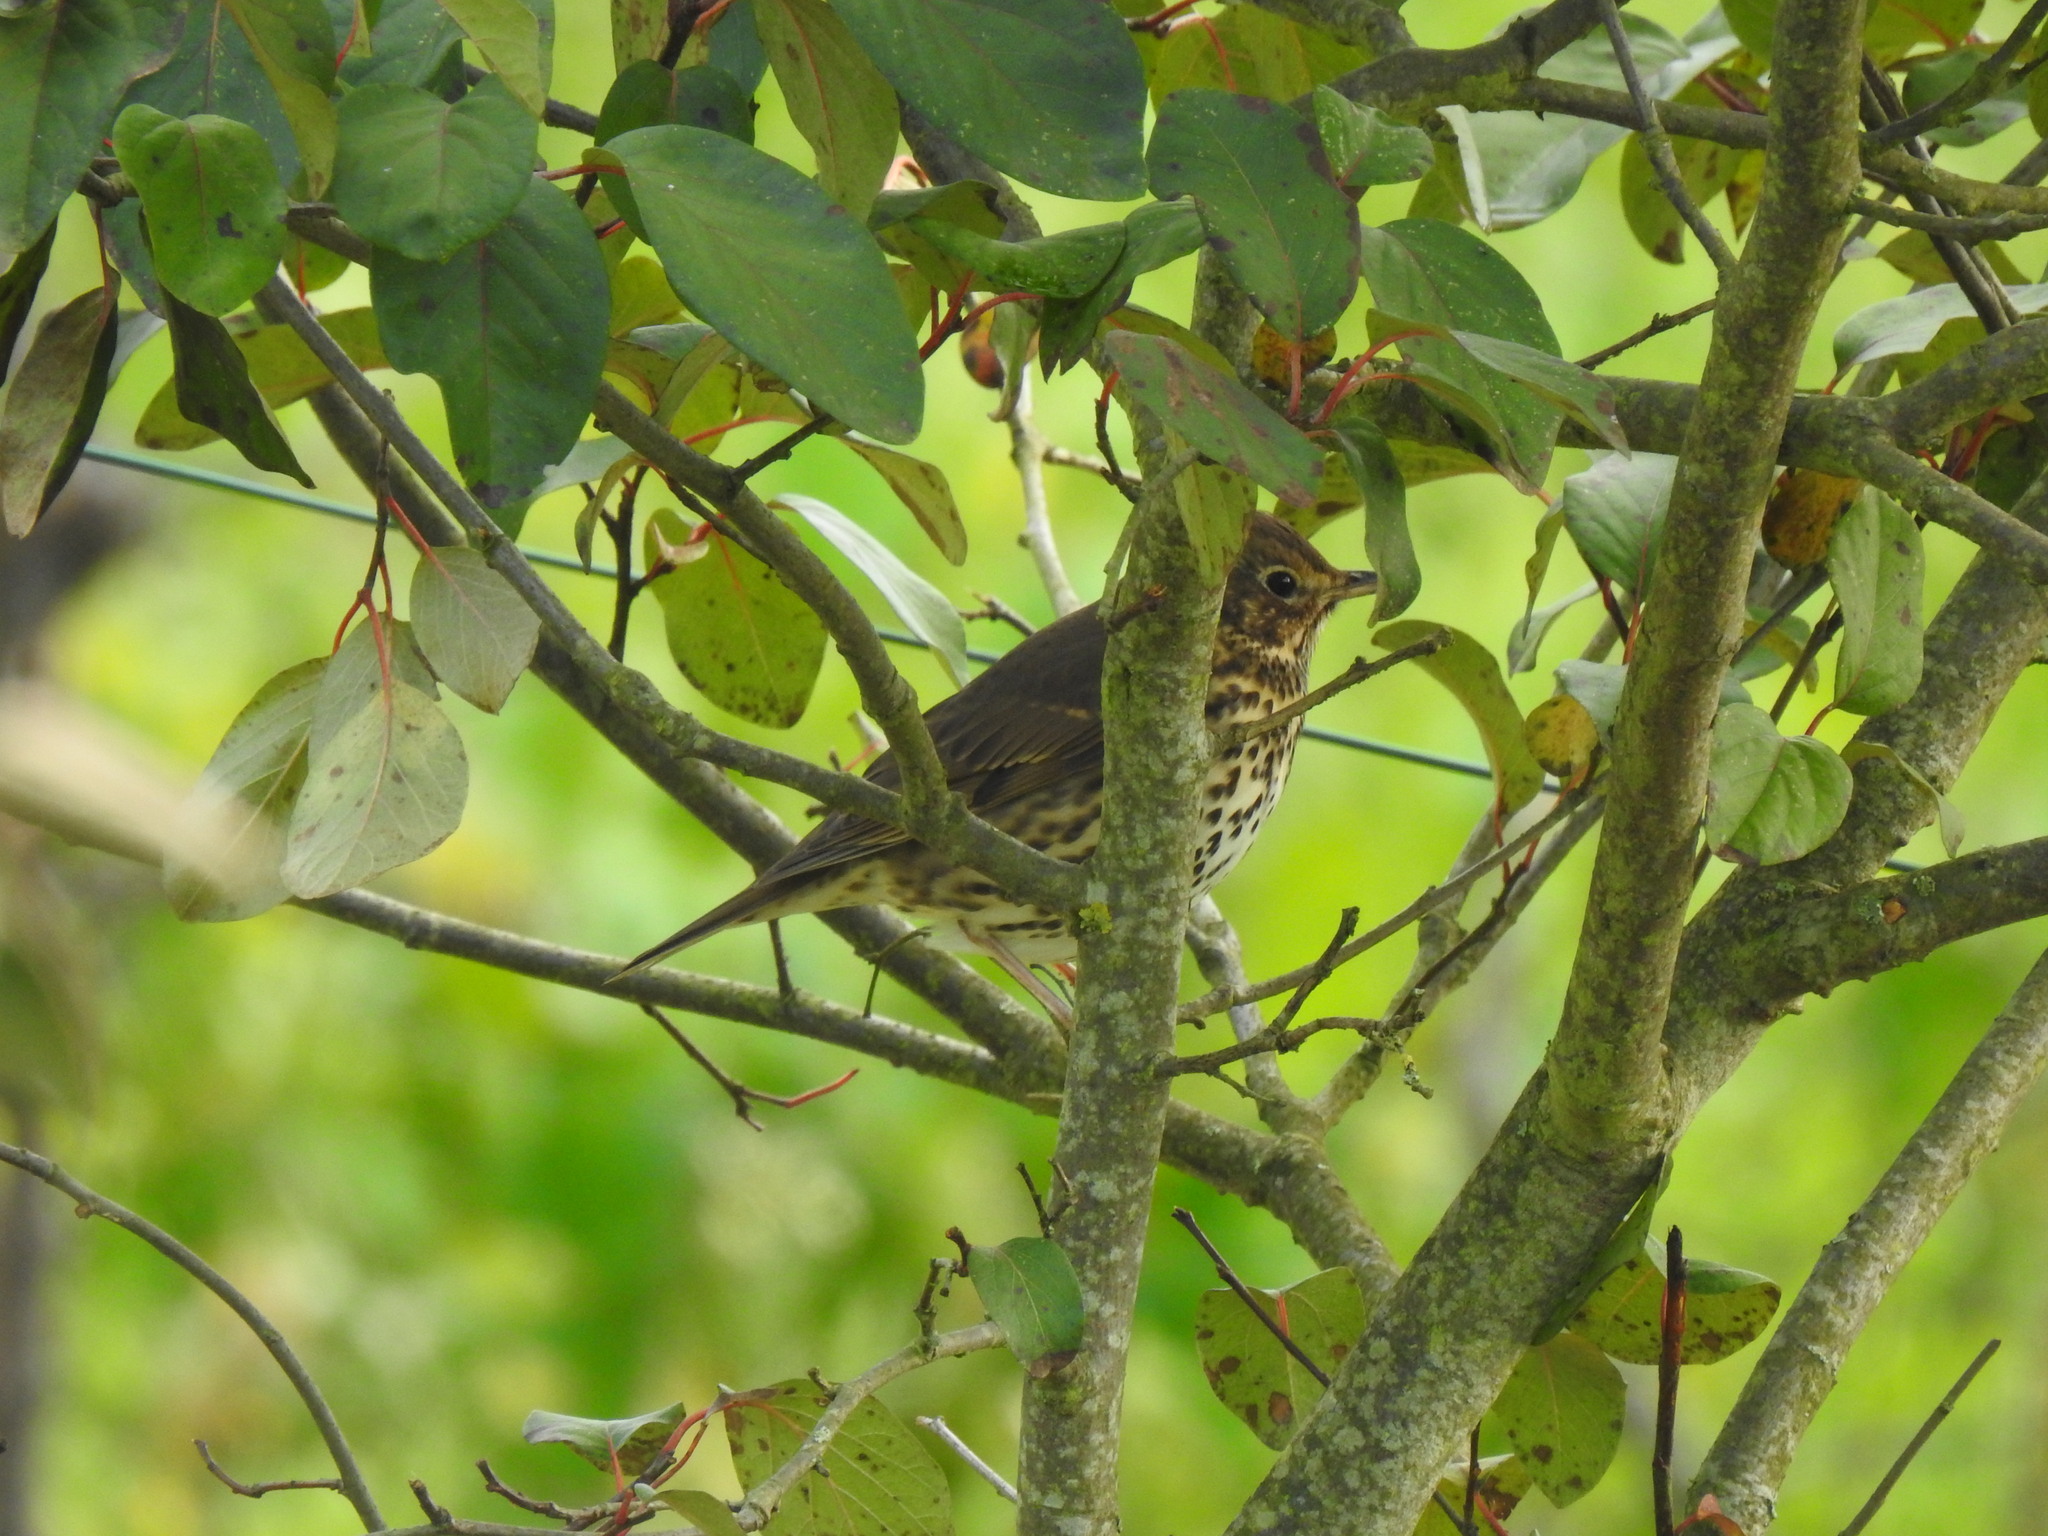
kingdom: Animalia
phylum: Chordata
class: Aves
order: Passeriformes
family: Turdidae
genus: Turdus
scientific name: Turdus philomelos
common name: Song thrush
